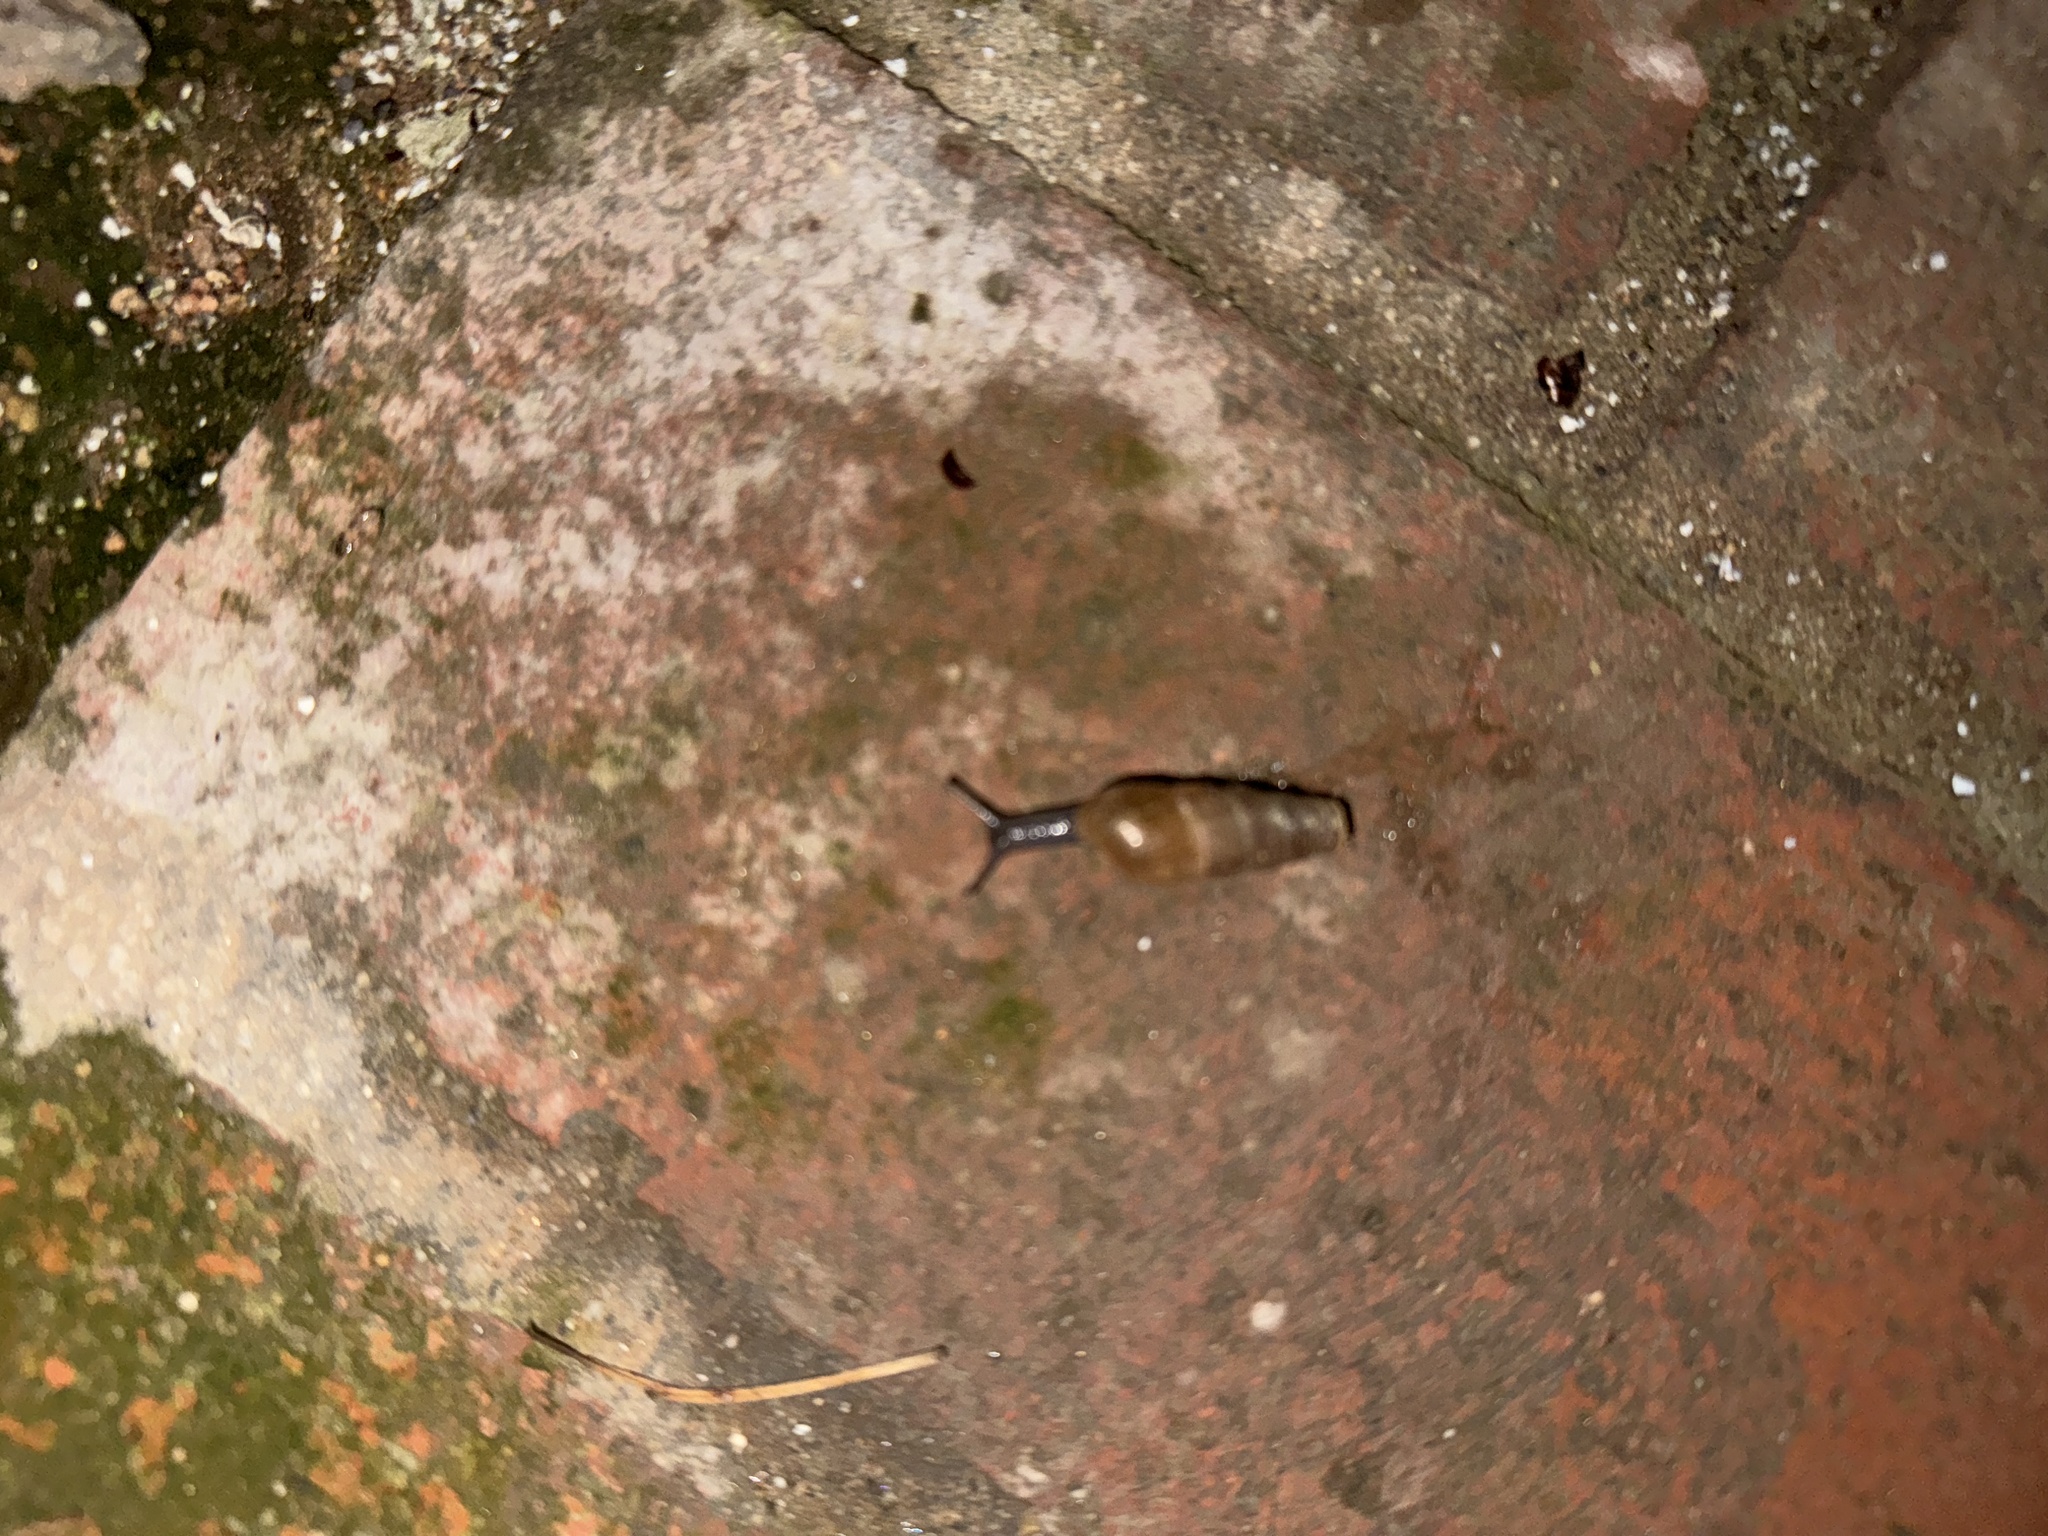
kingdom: Animalia
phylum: Mollusca
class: Gastropoda
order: Stylommatophora
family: Achatinidae
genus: Rumina
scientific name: Rumina decollata
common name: Decollate snail
